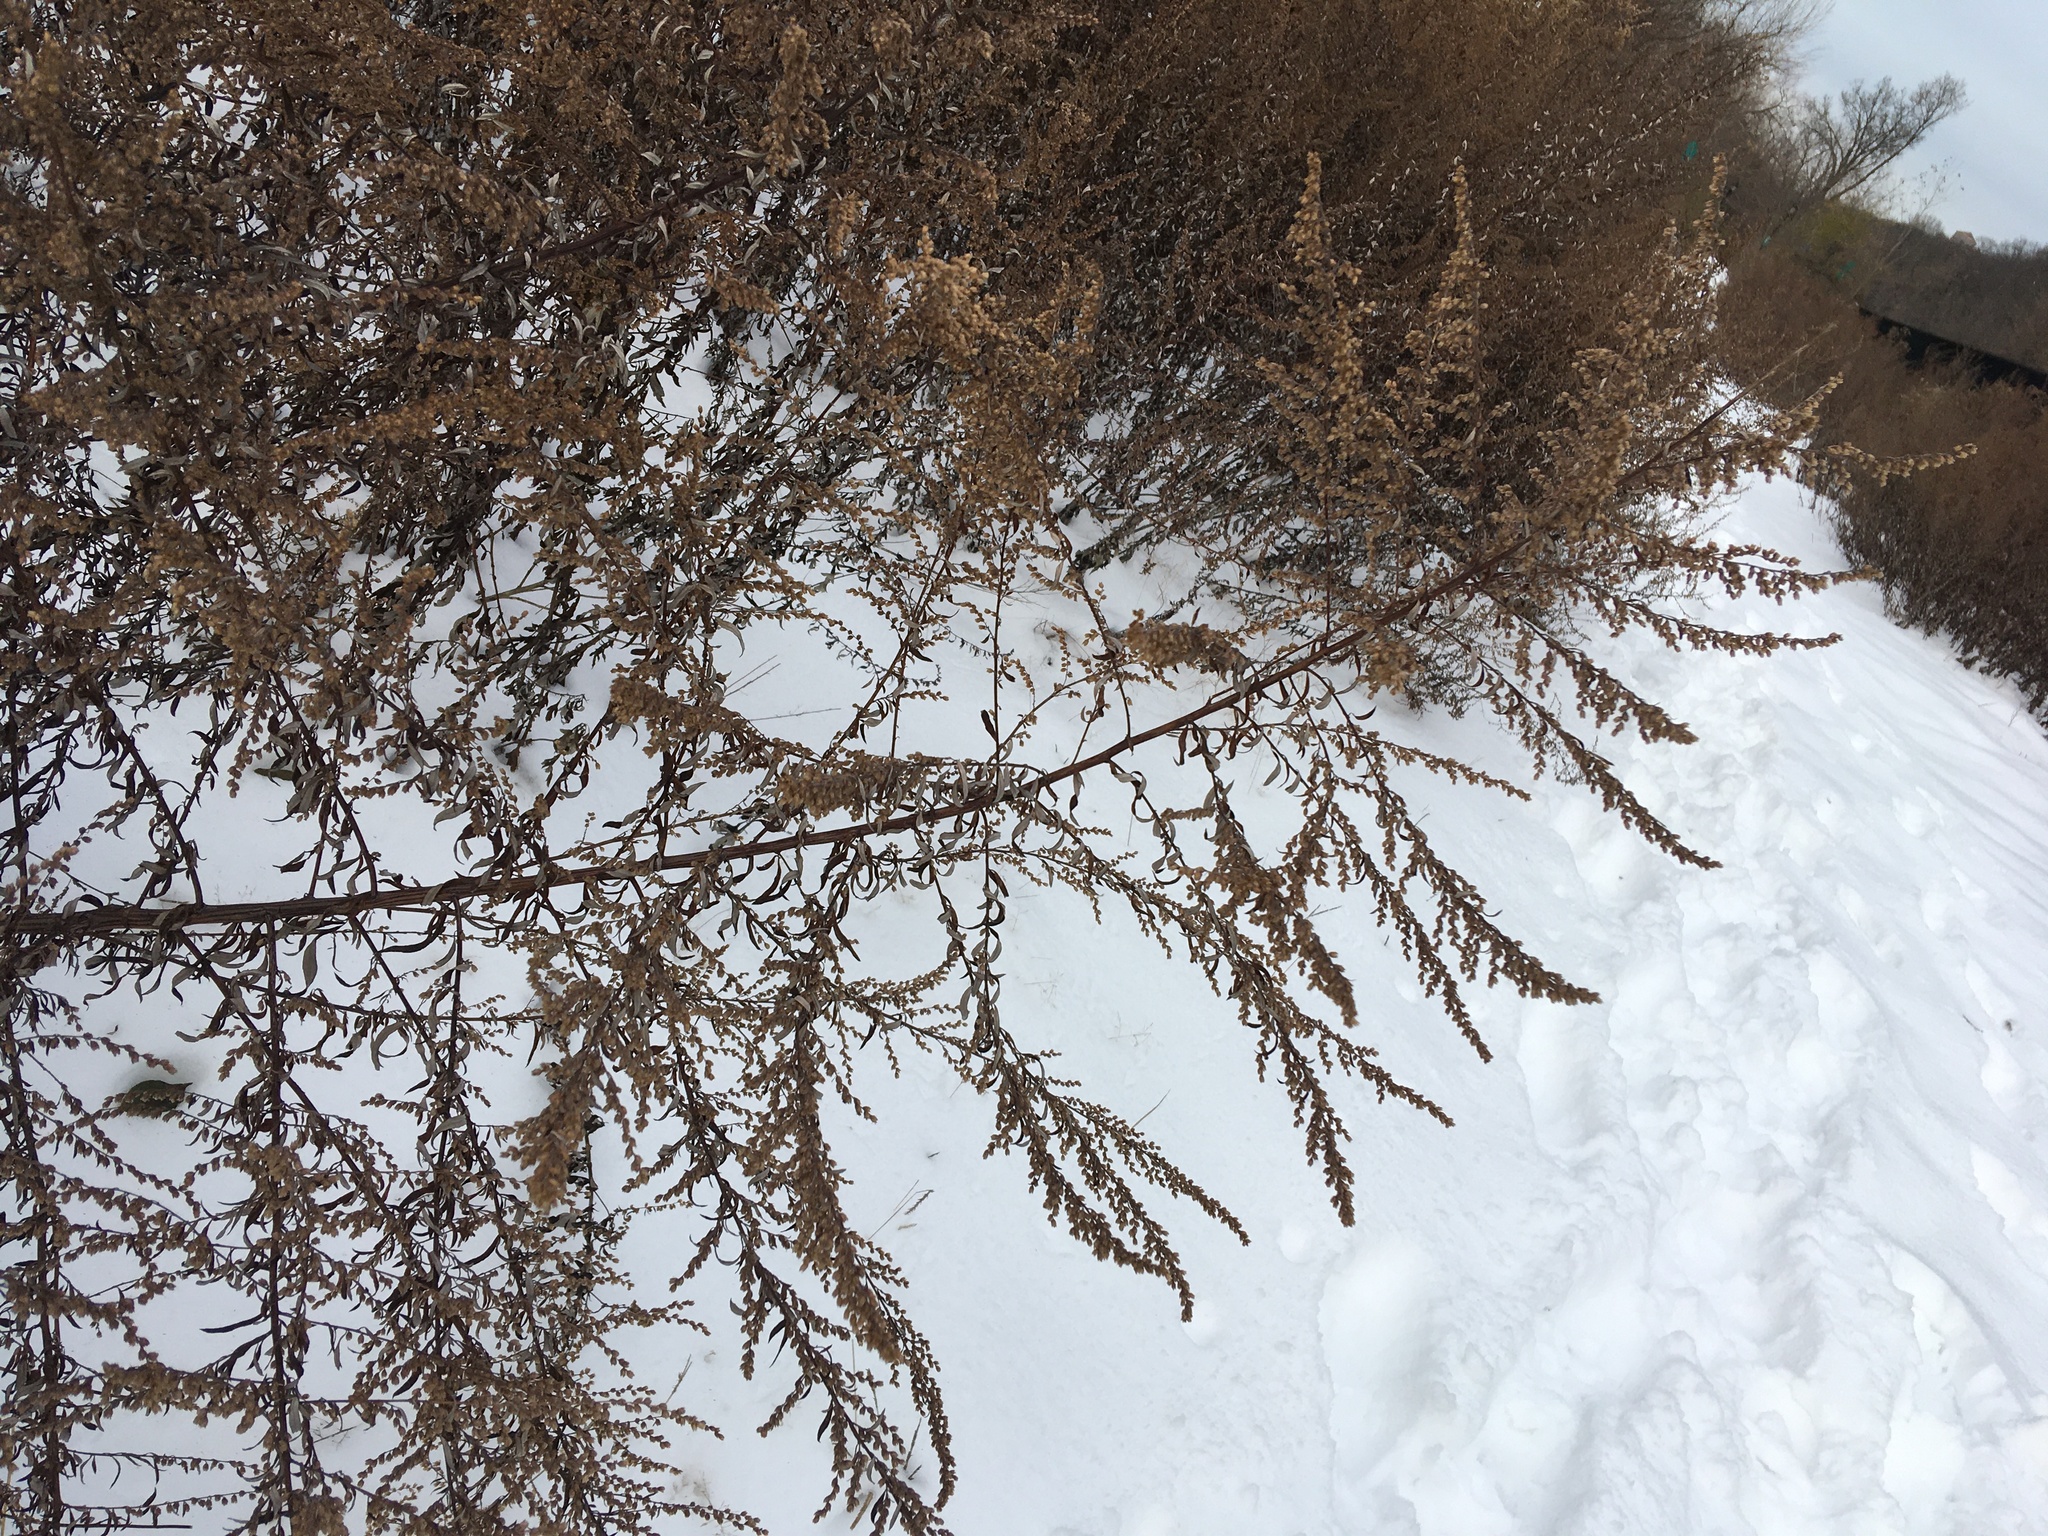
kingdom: Plantae
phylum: Tracheophyta
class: Magnoliopsida
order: Asterales
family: Asteraceae
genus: Artemisia
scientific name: Artemisia vulgaris
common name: Mugwort
